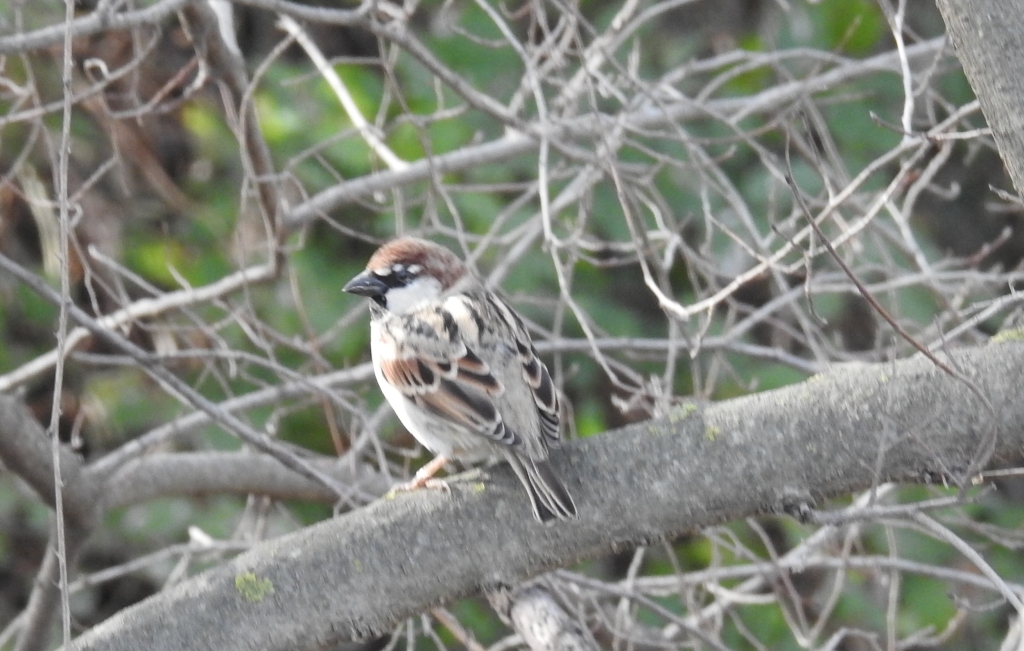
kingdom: Animalia
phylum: Chordata
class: Aves
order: Passeriformes
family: Passeridae
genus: Passer
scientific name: Passer domesticus
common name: House sparrow
